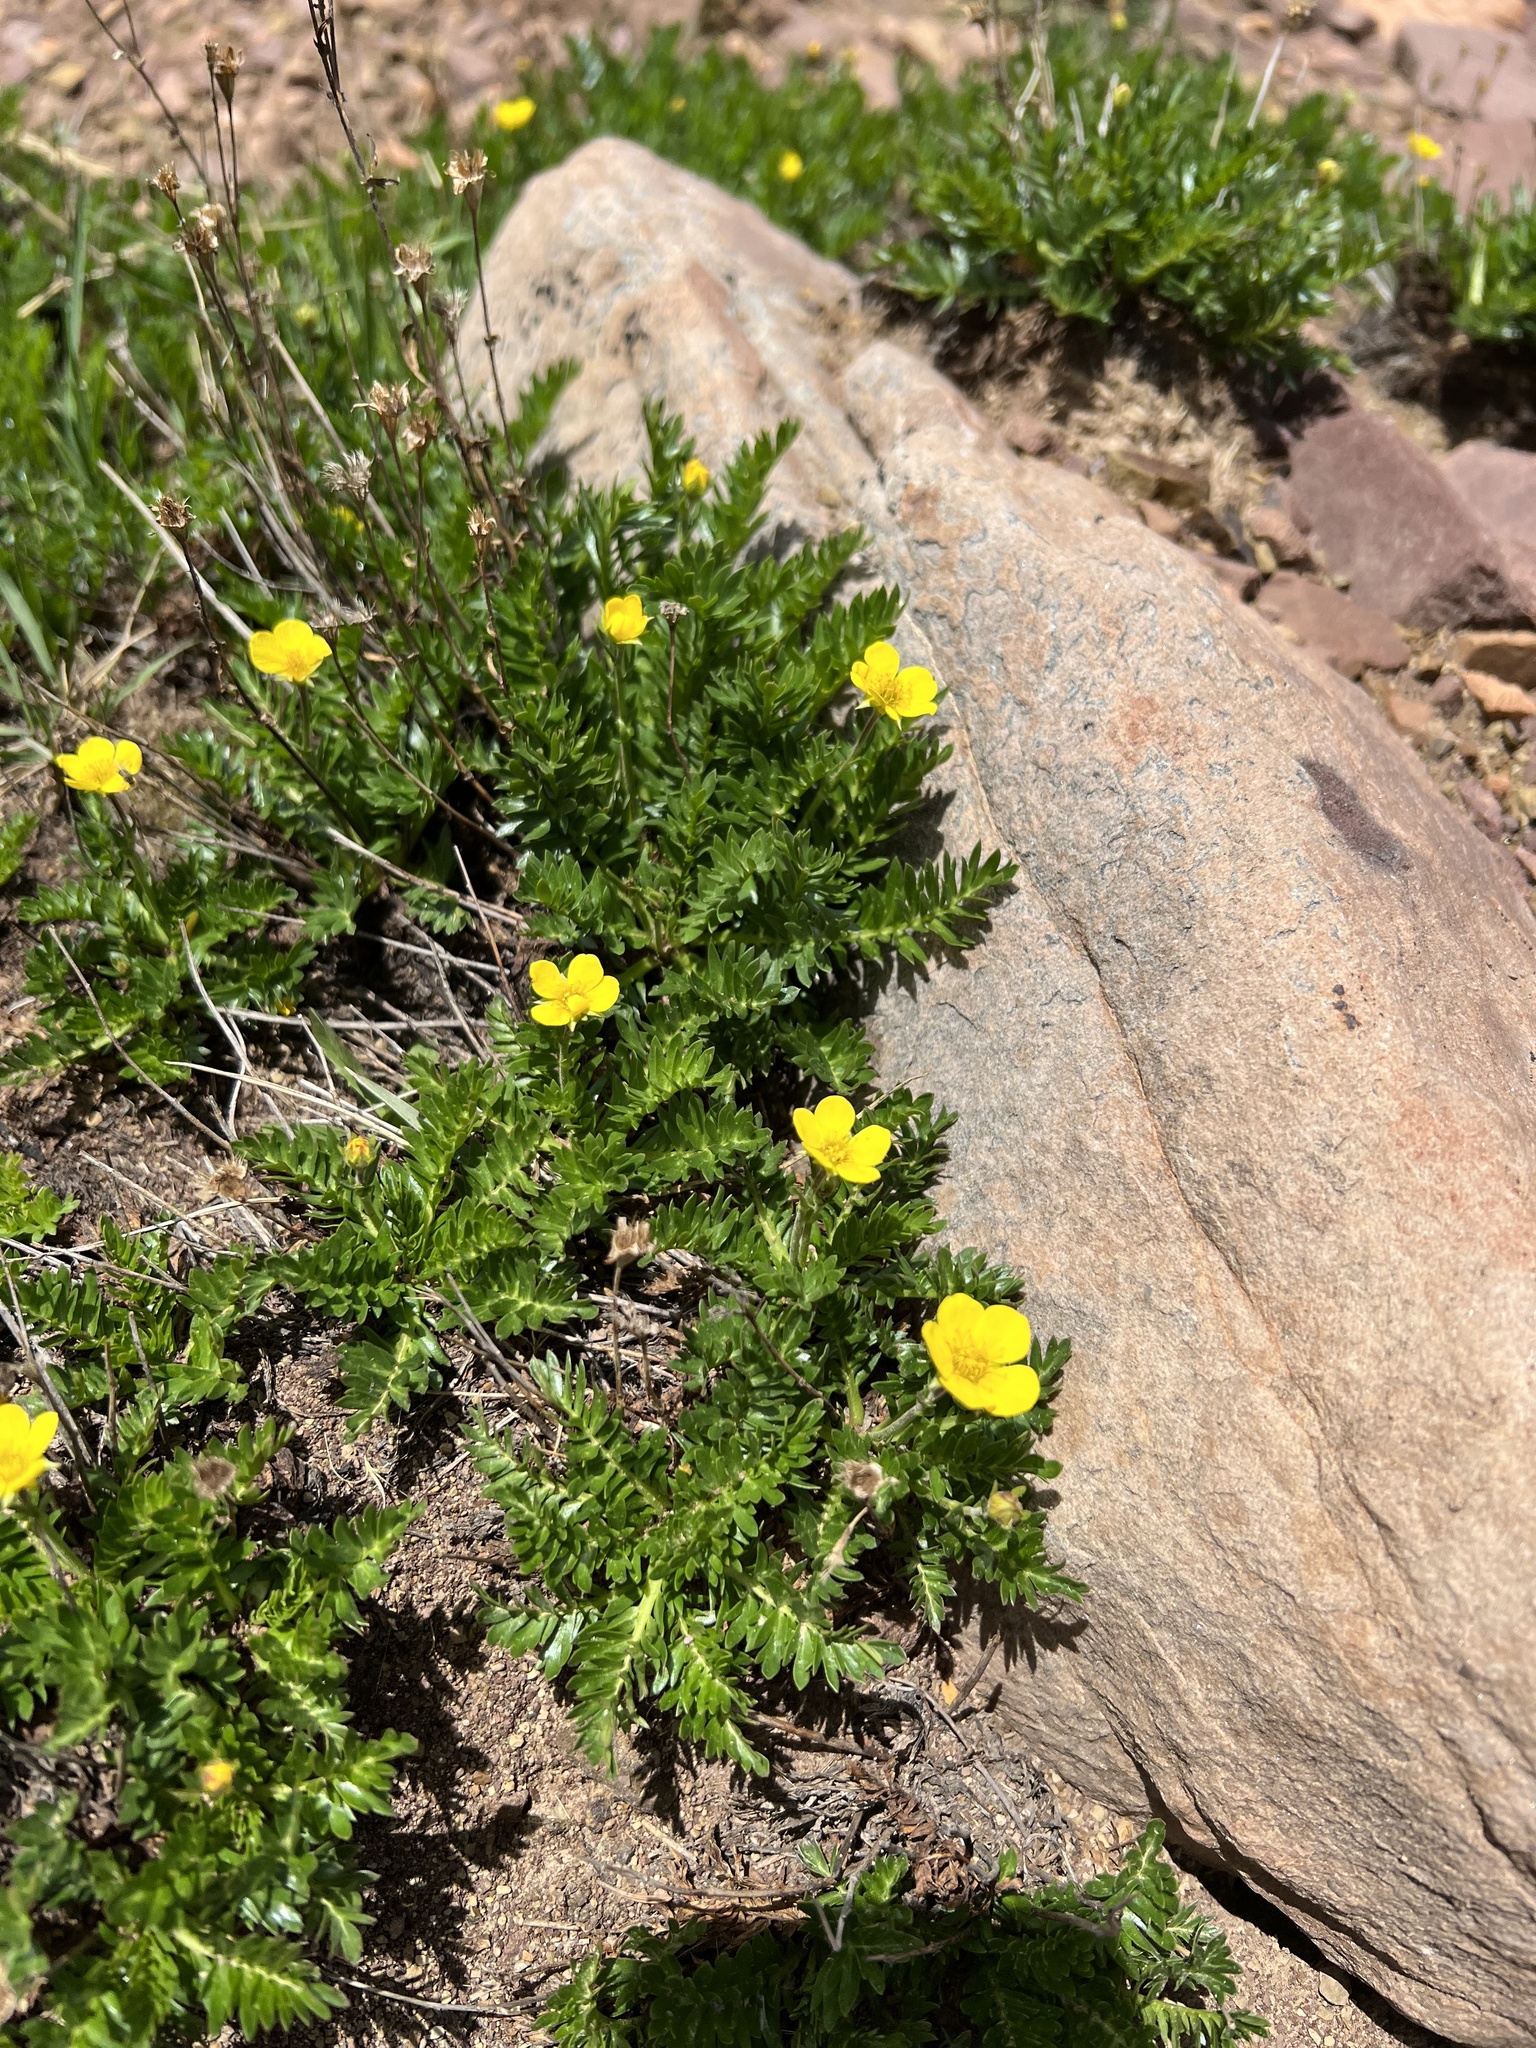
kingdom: Plantae
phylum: Tracheophyta
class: Magnoliopsida
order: Rosales
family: Rosaceae
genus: Geum
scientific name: Geum rossii
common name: Alpine avens
